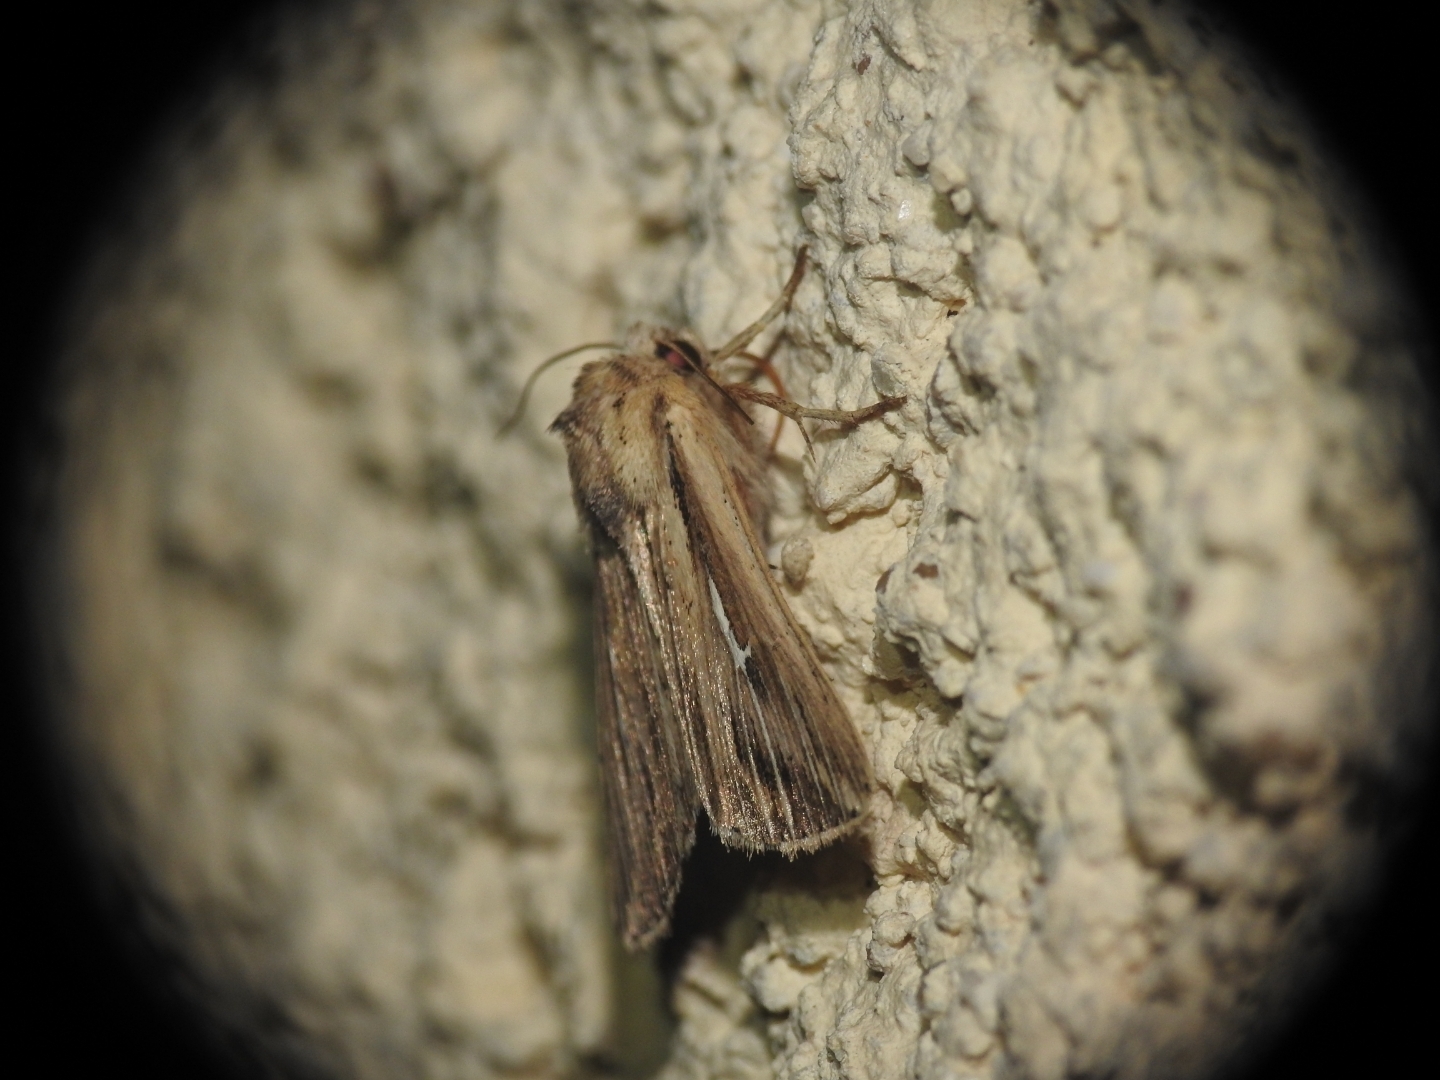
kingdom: Animalia
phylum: Arthropoda
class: Insecta
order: Lepidoptera
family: Noctuidae
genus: Mythimna
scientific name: Mythimna l-album
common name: L-album wainscot
